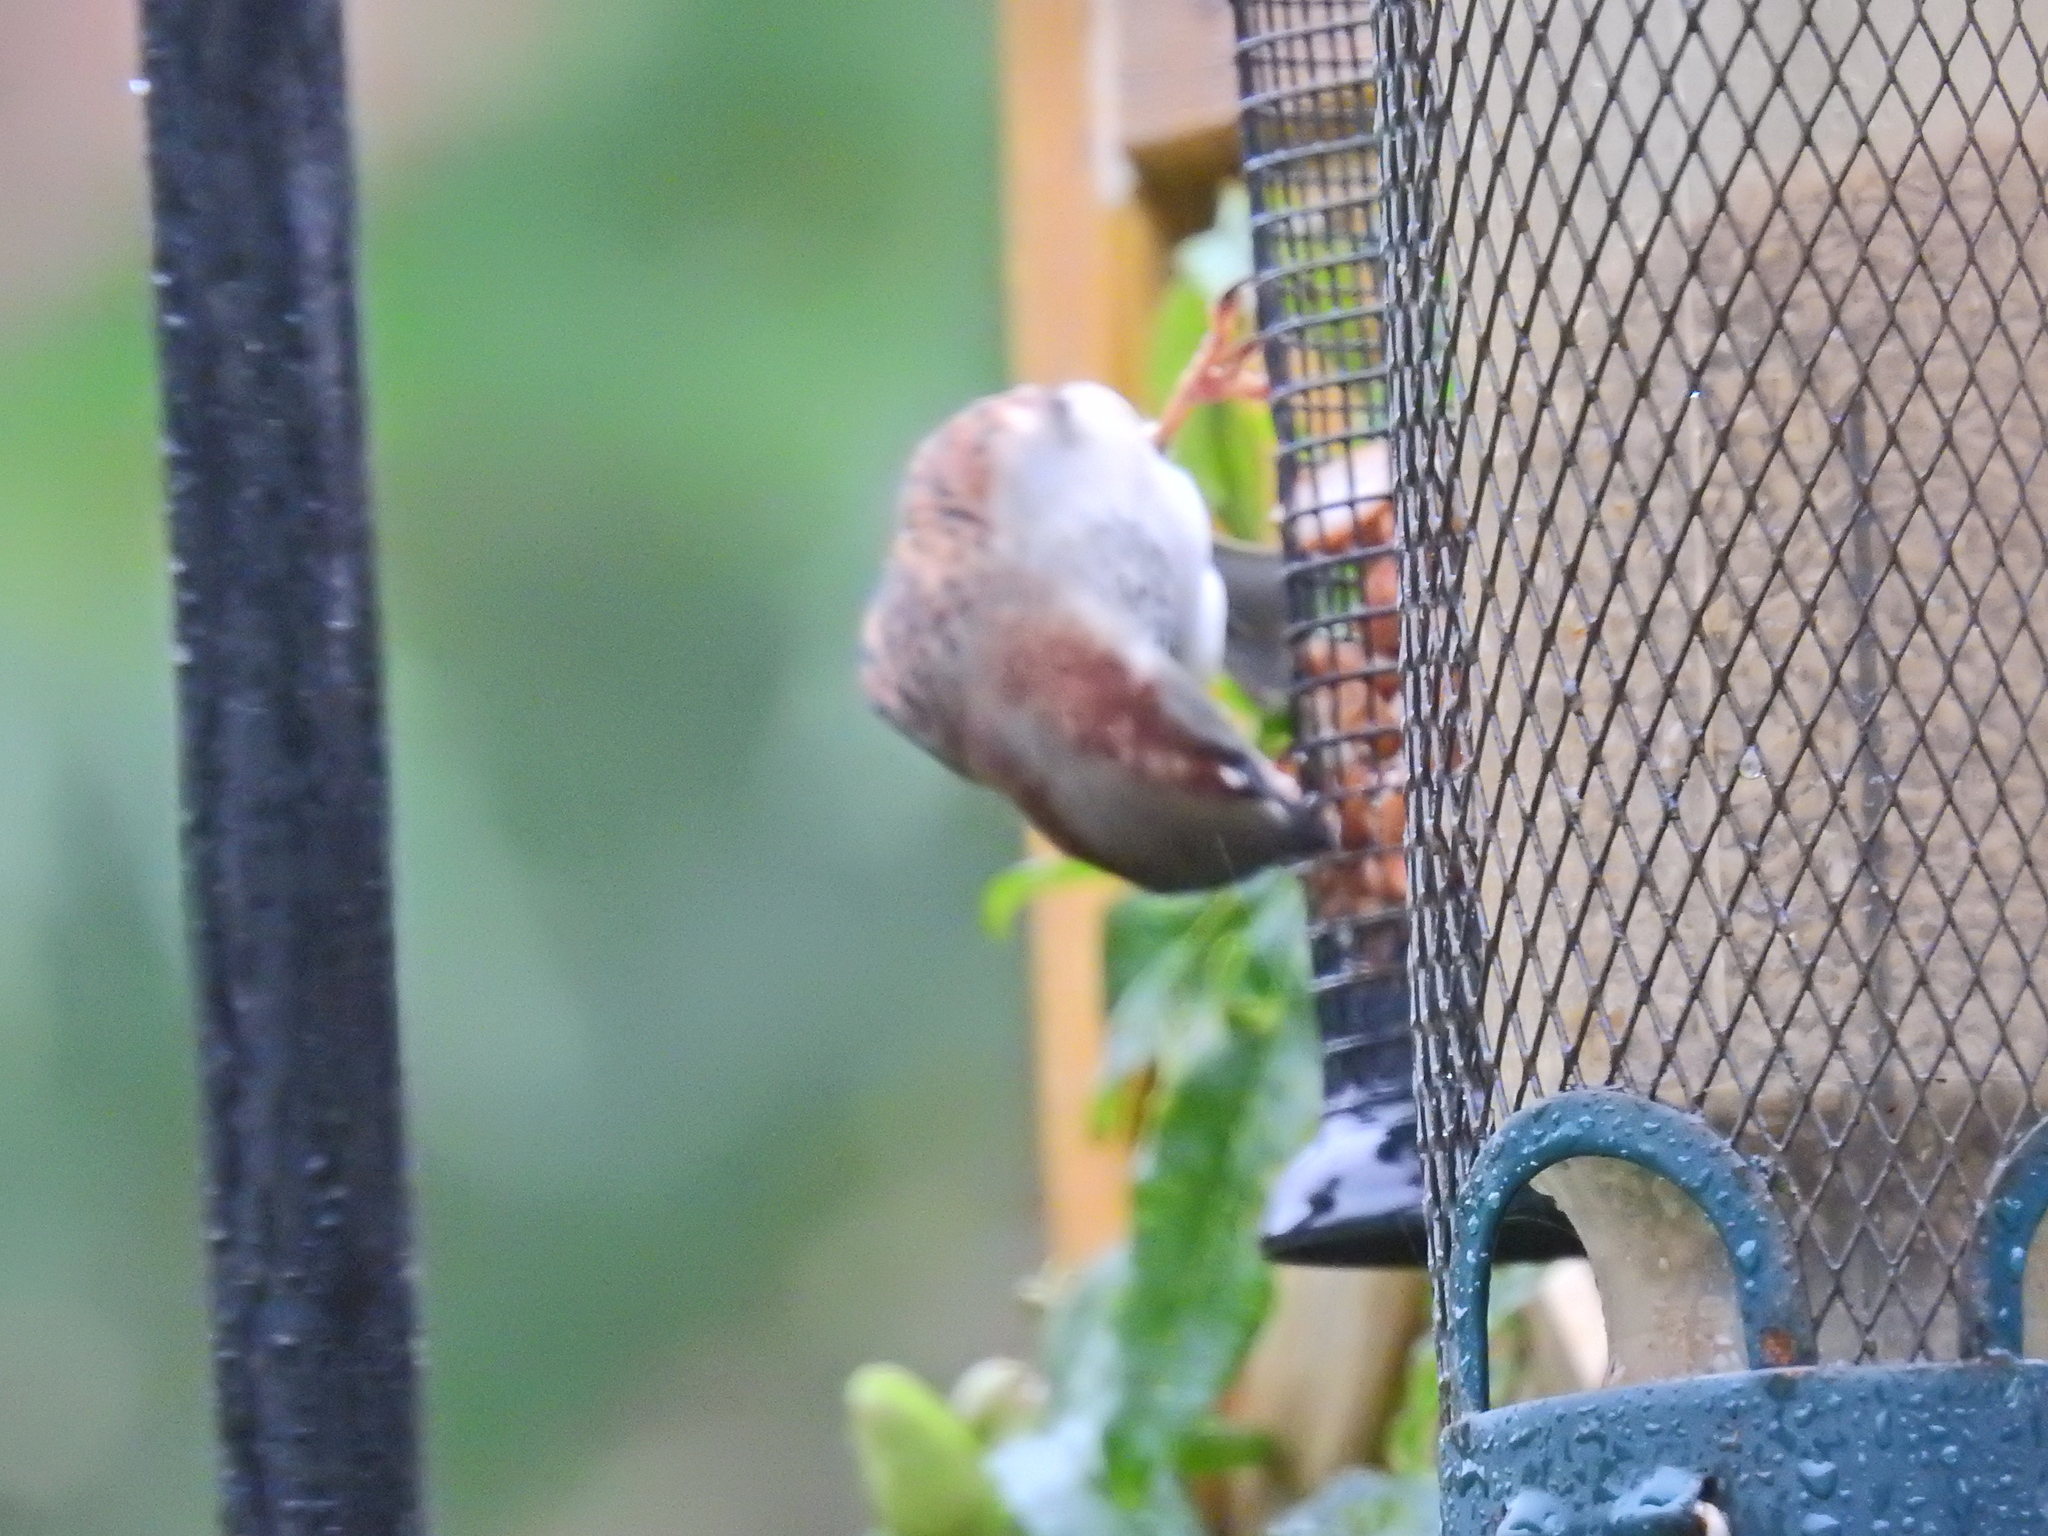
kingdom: Animalia
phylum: Chordata
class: Aves
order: Passeriformes
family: Passeridae
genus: Passer
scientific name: Passer domesticus
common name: House sparrow
